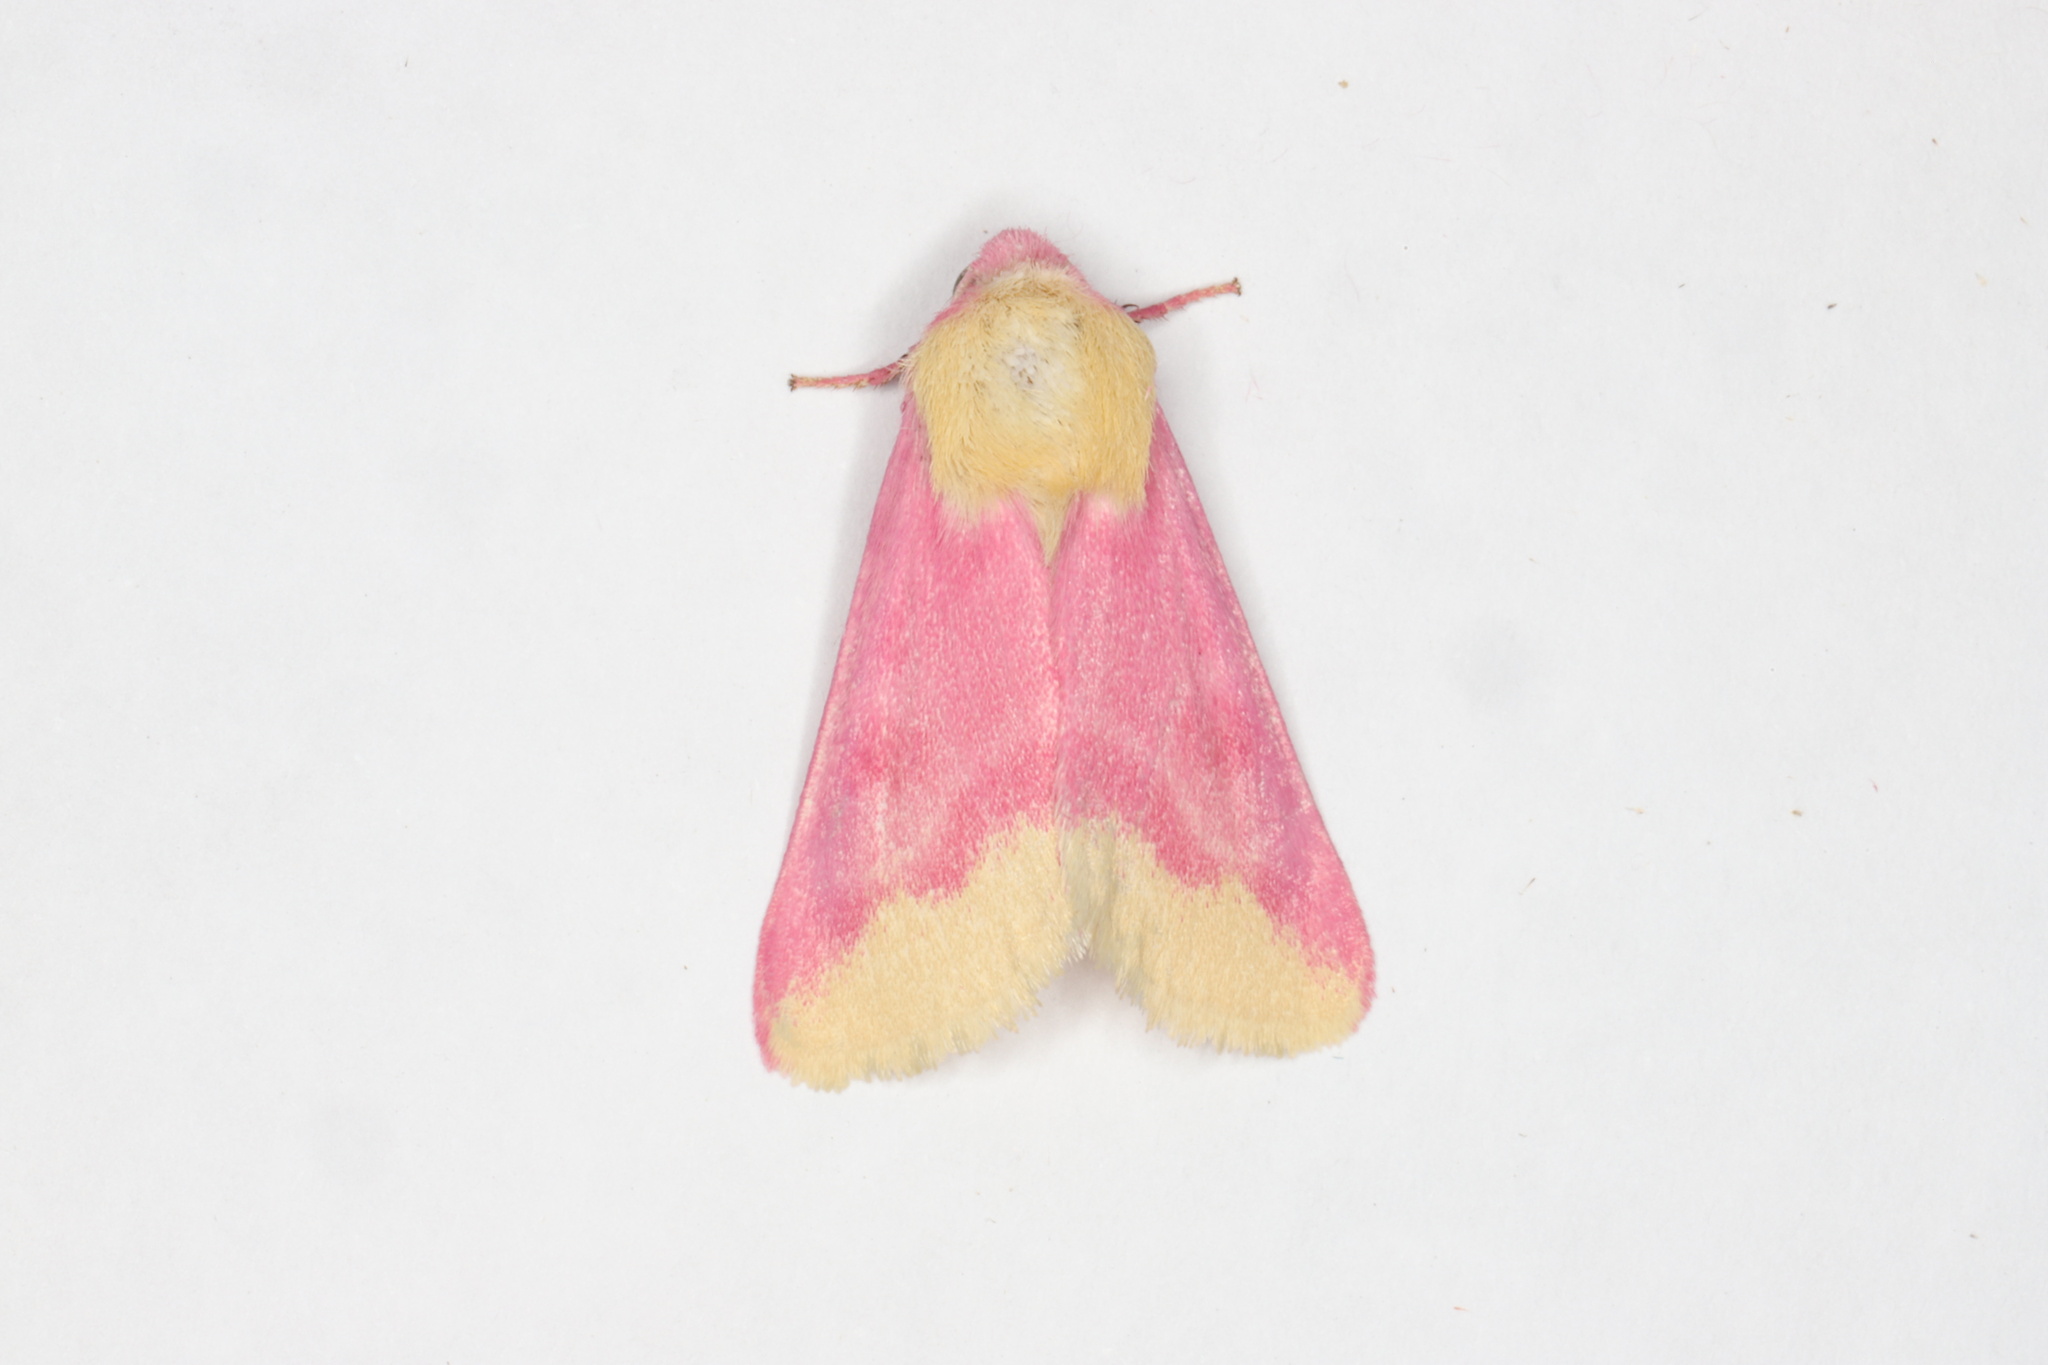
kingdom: Animalia
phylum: Arthropoda
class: Insecta
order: Lepidoptera
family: Noctuidae
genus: Schinia
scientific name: Schinia florida
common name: Primrose moth
